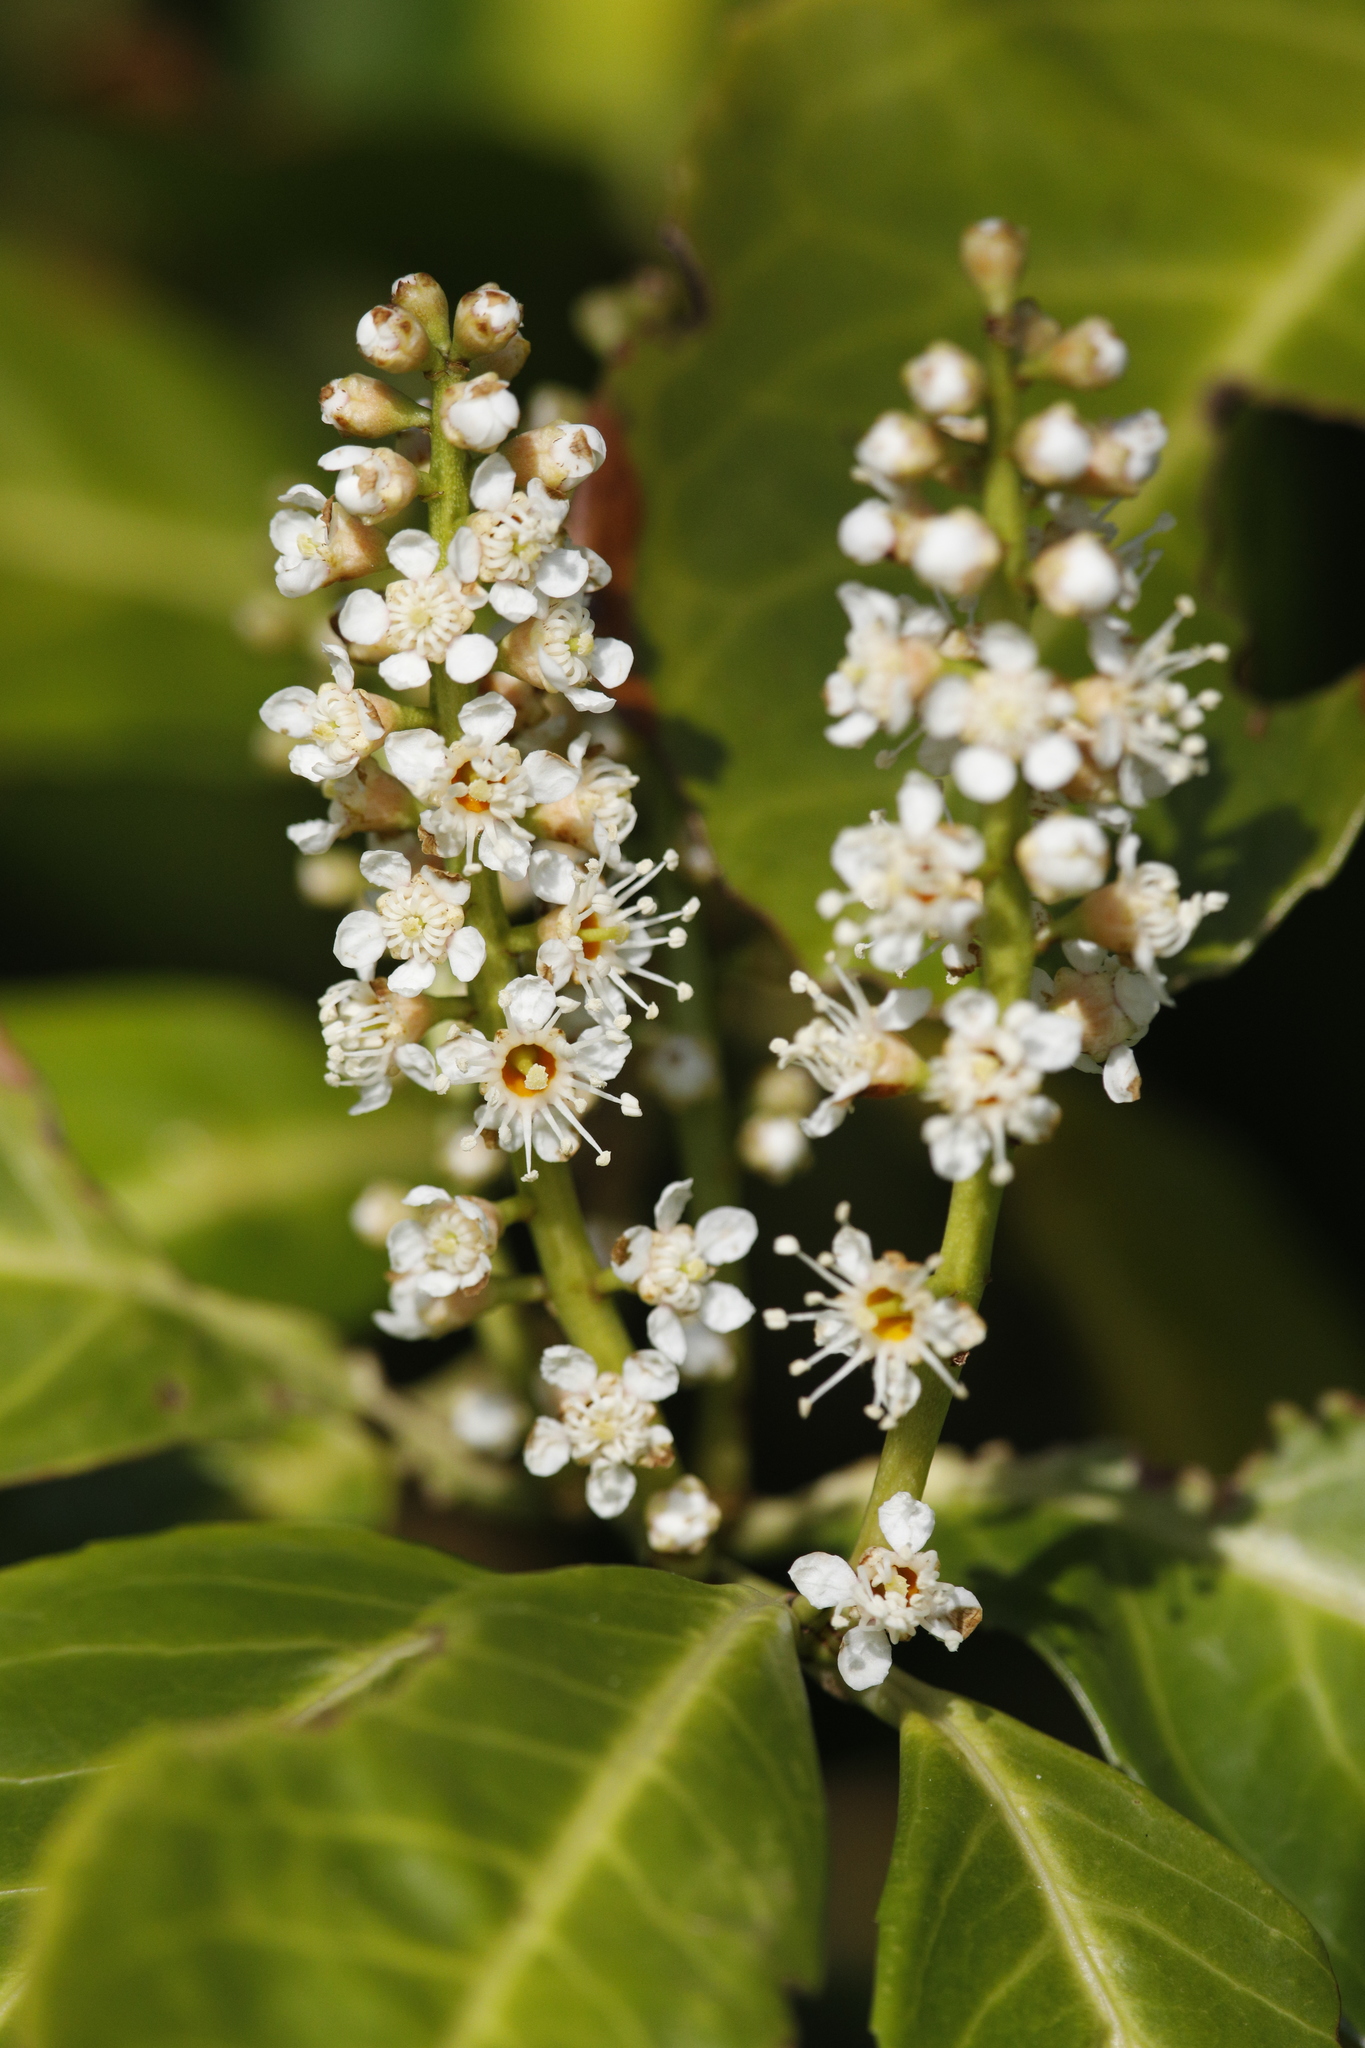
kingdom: Plantae
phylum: Tracheophyta
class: Magnoliopsida
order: Rosales
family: Rosaceae
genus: Prunus
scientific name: Prunus laurocerasus
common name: Cherry laurel
